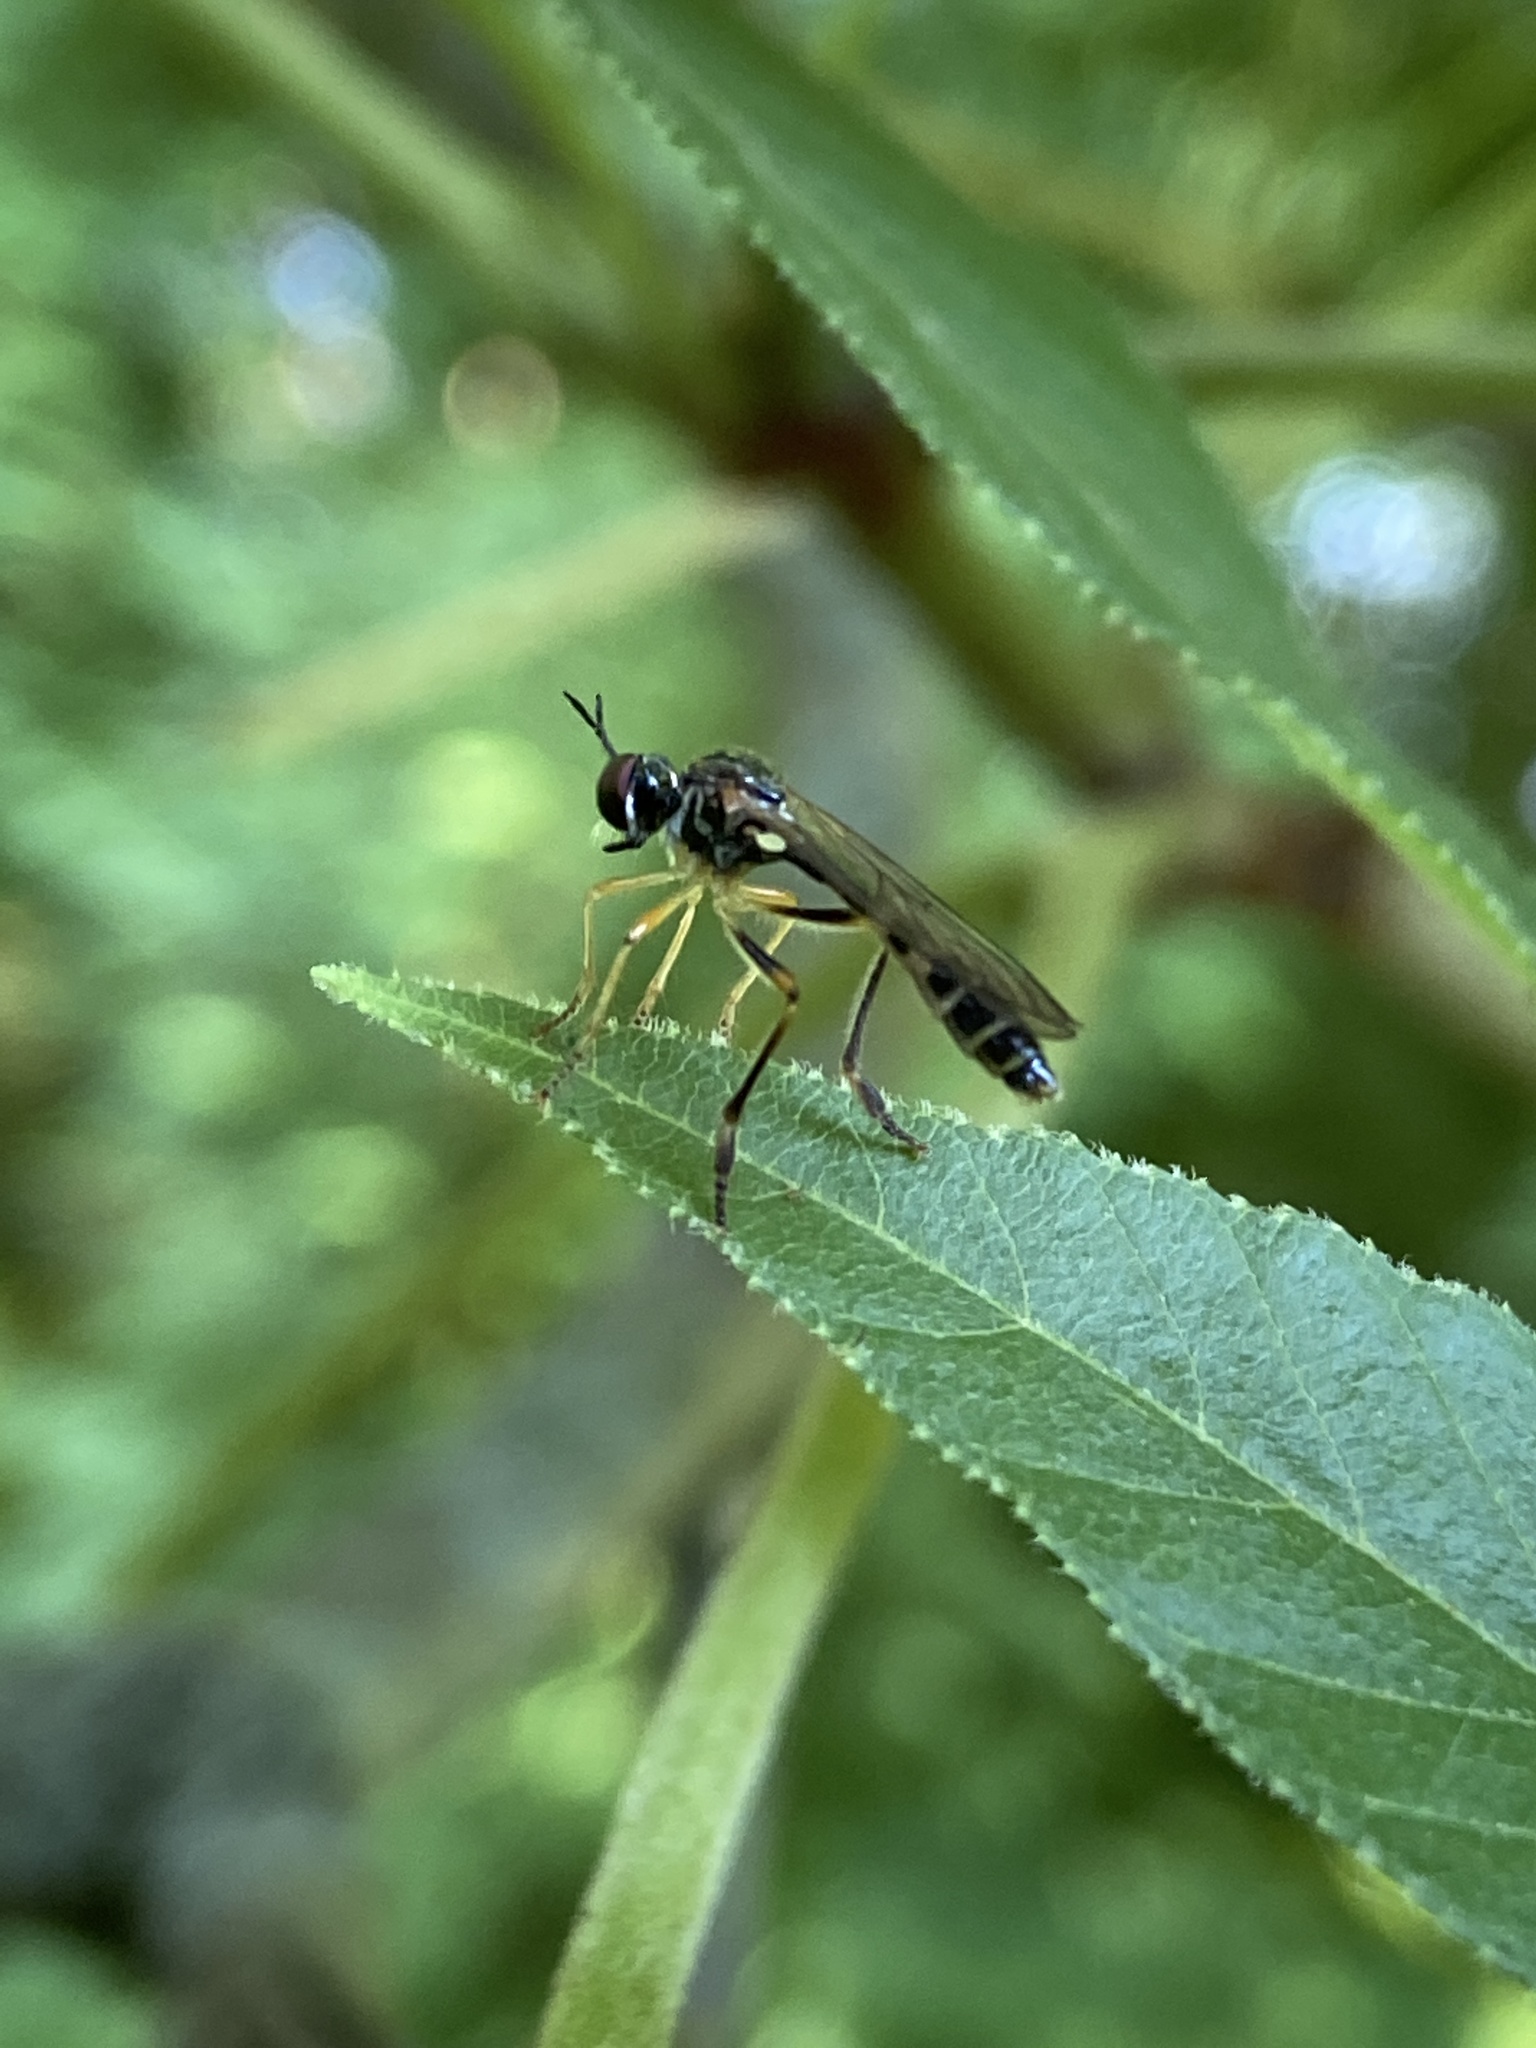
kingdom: Animalia
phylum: Arthropoda
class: Insecta
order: Diptera
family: Asilidae
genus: Dioctria
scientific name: Dioctria linearis
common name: Small yellow-legged robberfly
